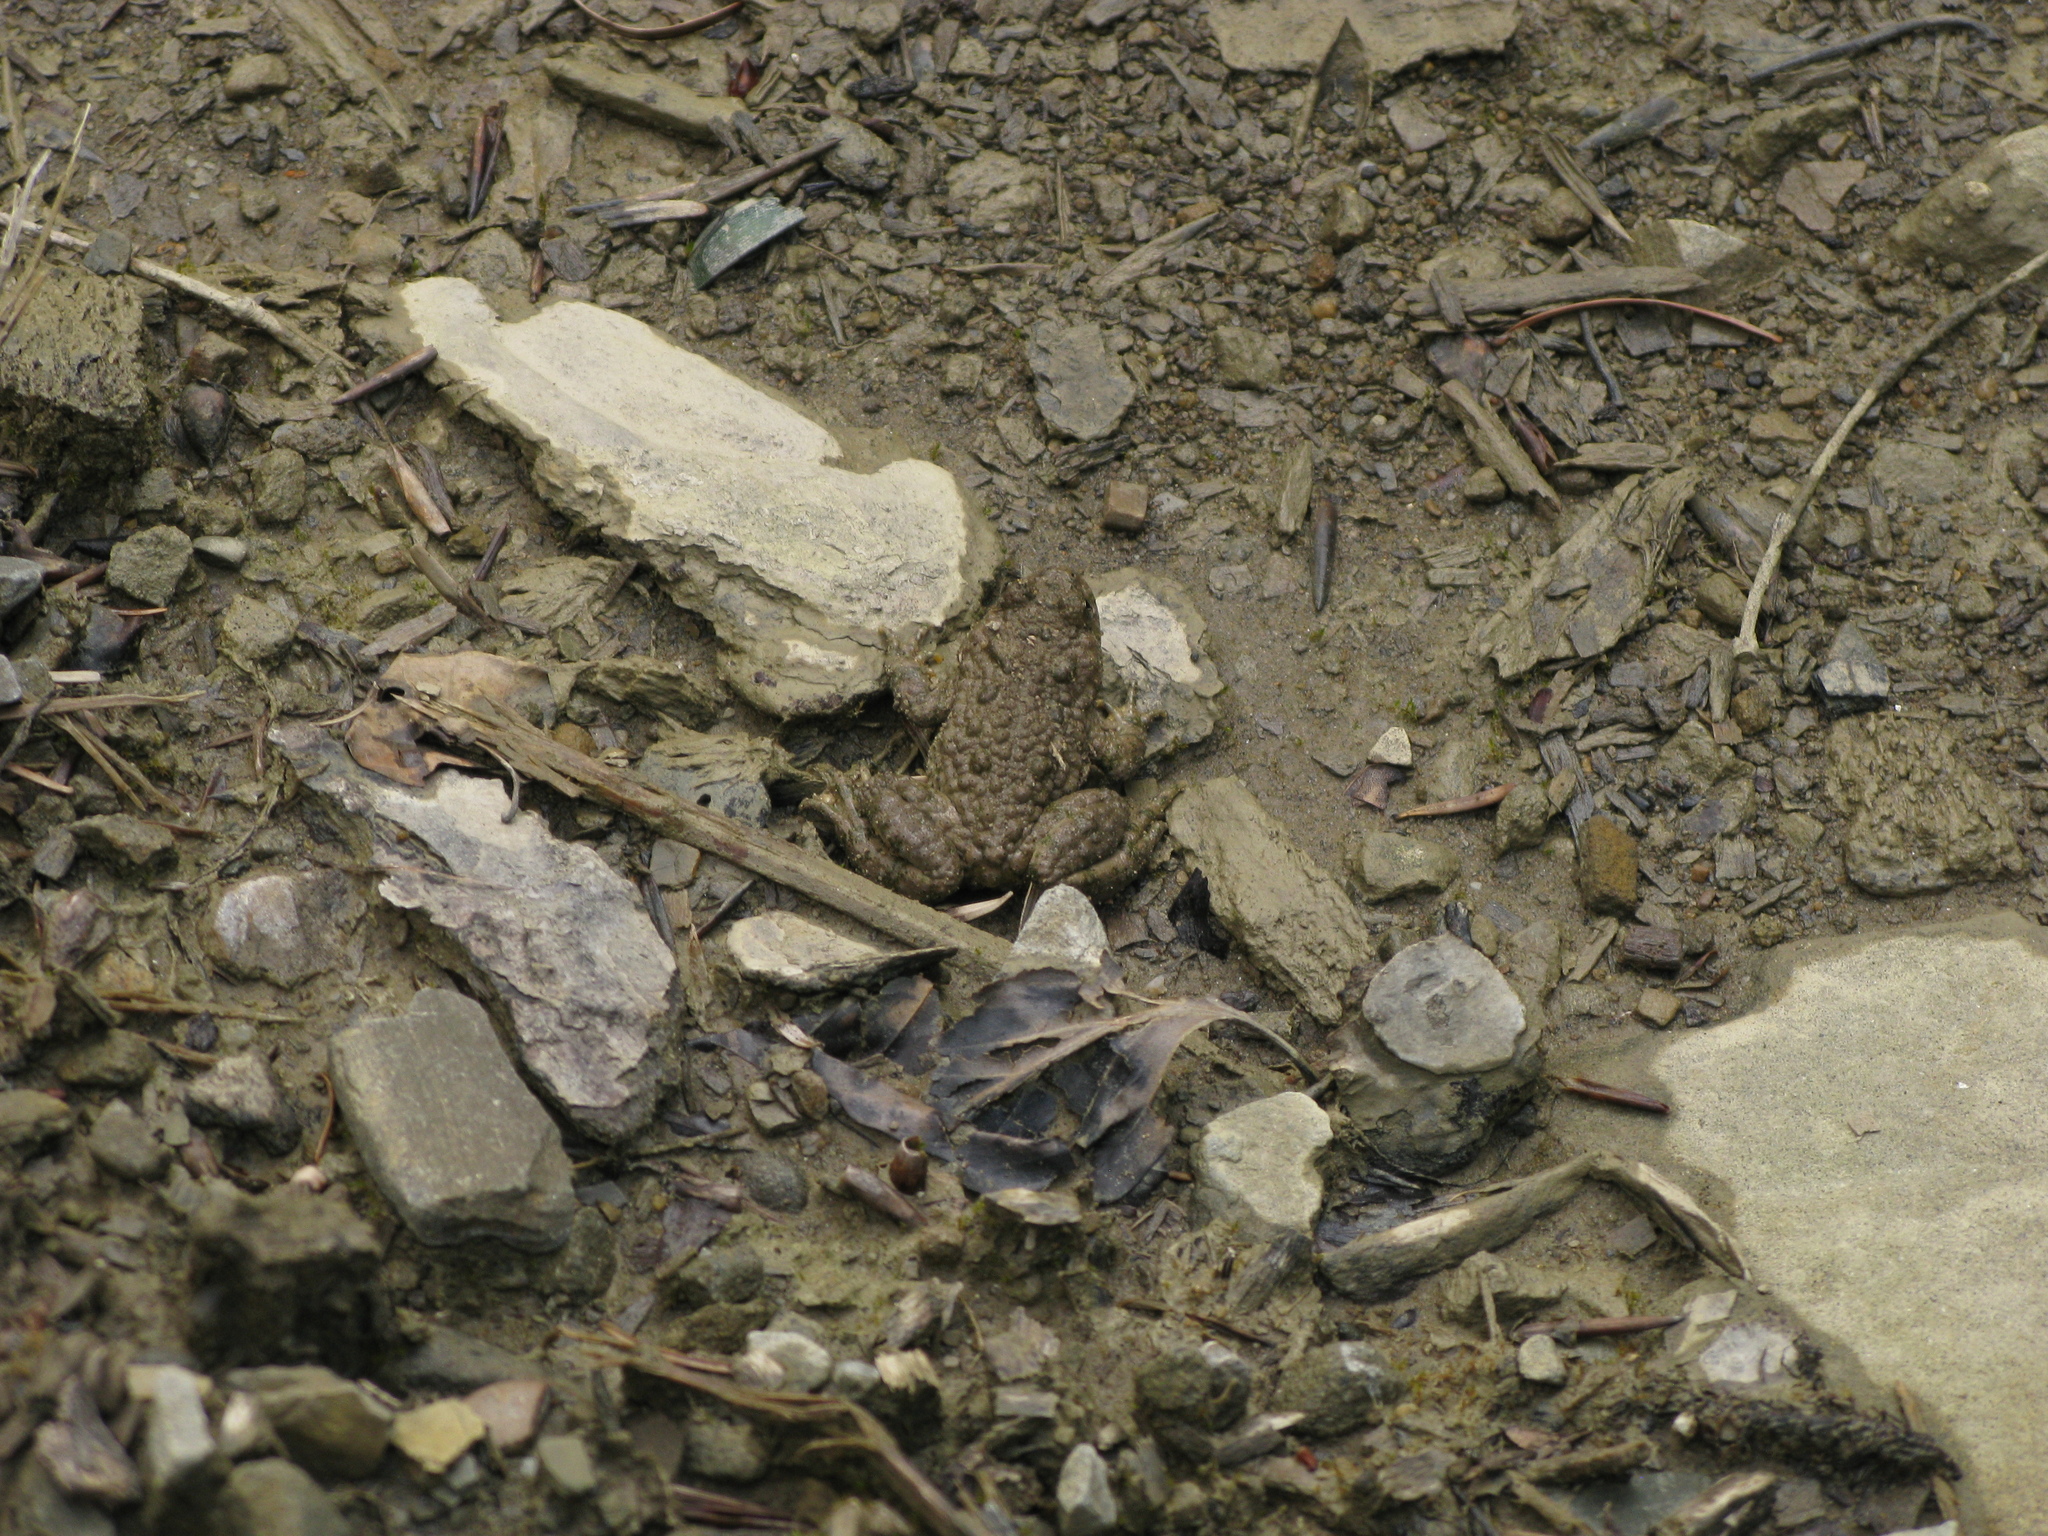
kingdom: Animalia
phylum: Chordata
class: Amphibia
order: Anura
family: Bombinatoridae
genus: Bombina
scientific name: Bombina variegata
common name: Yellow-bellied toad
